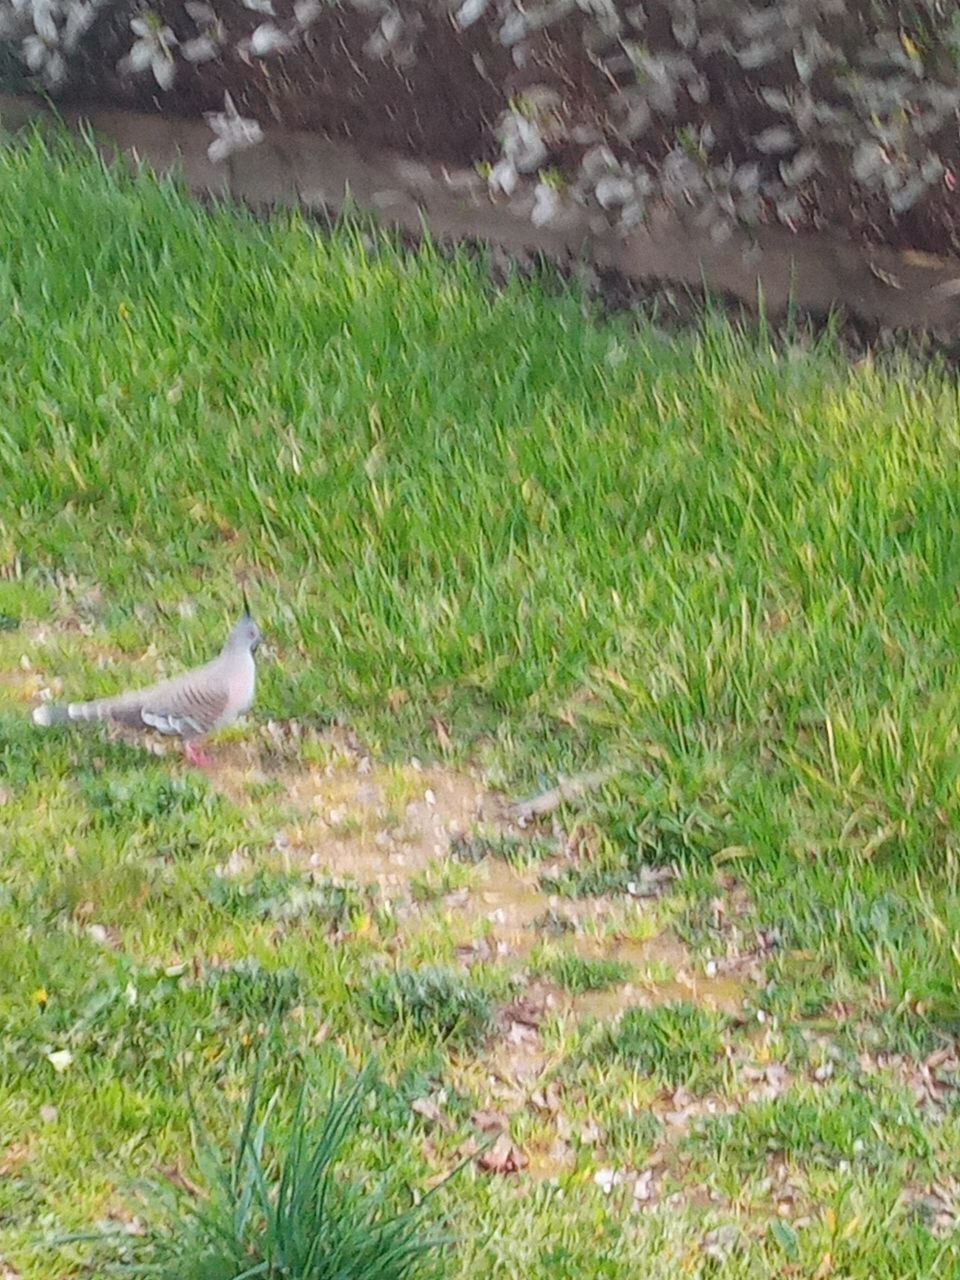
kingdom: Animalia
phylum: Chordata
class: Aves
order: Columbiformes
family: Columbidae
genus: Ocyphaps
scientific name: Ocyphaps lophotes
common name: Crested pigeon
